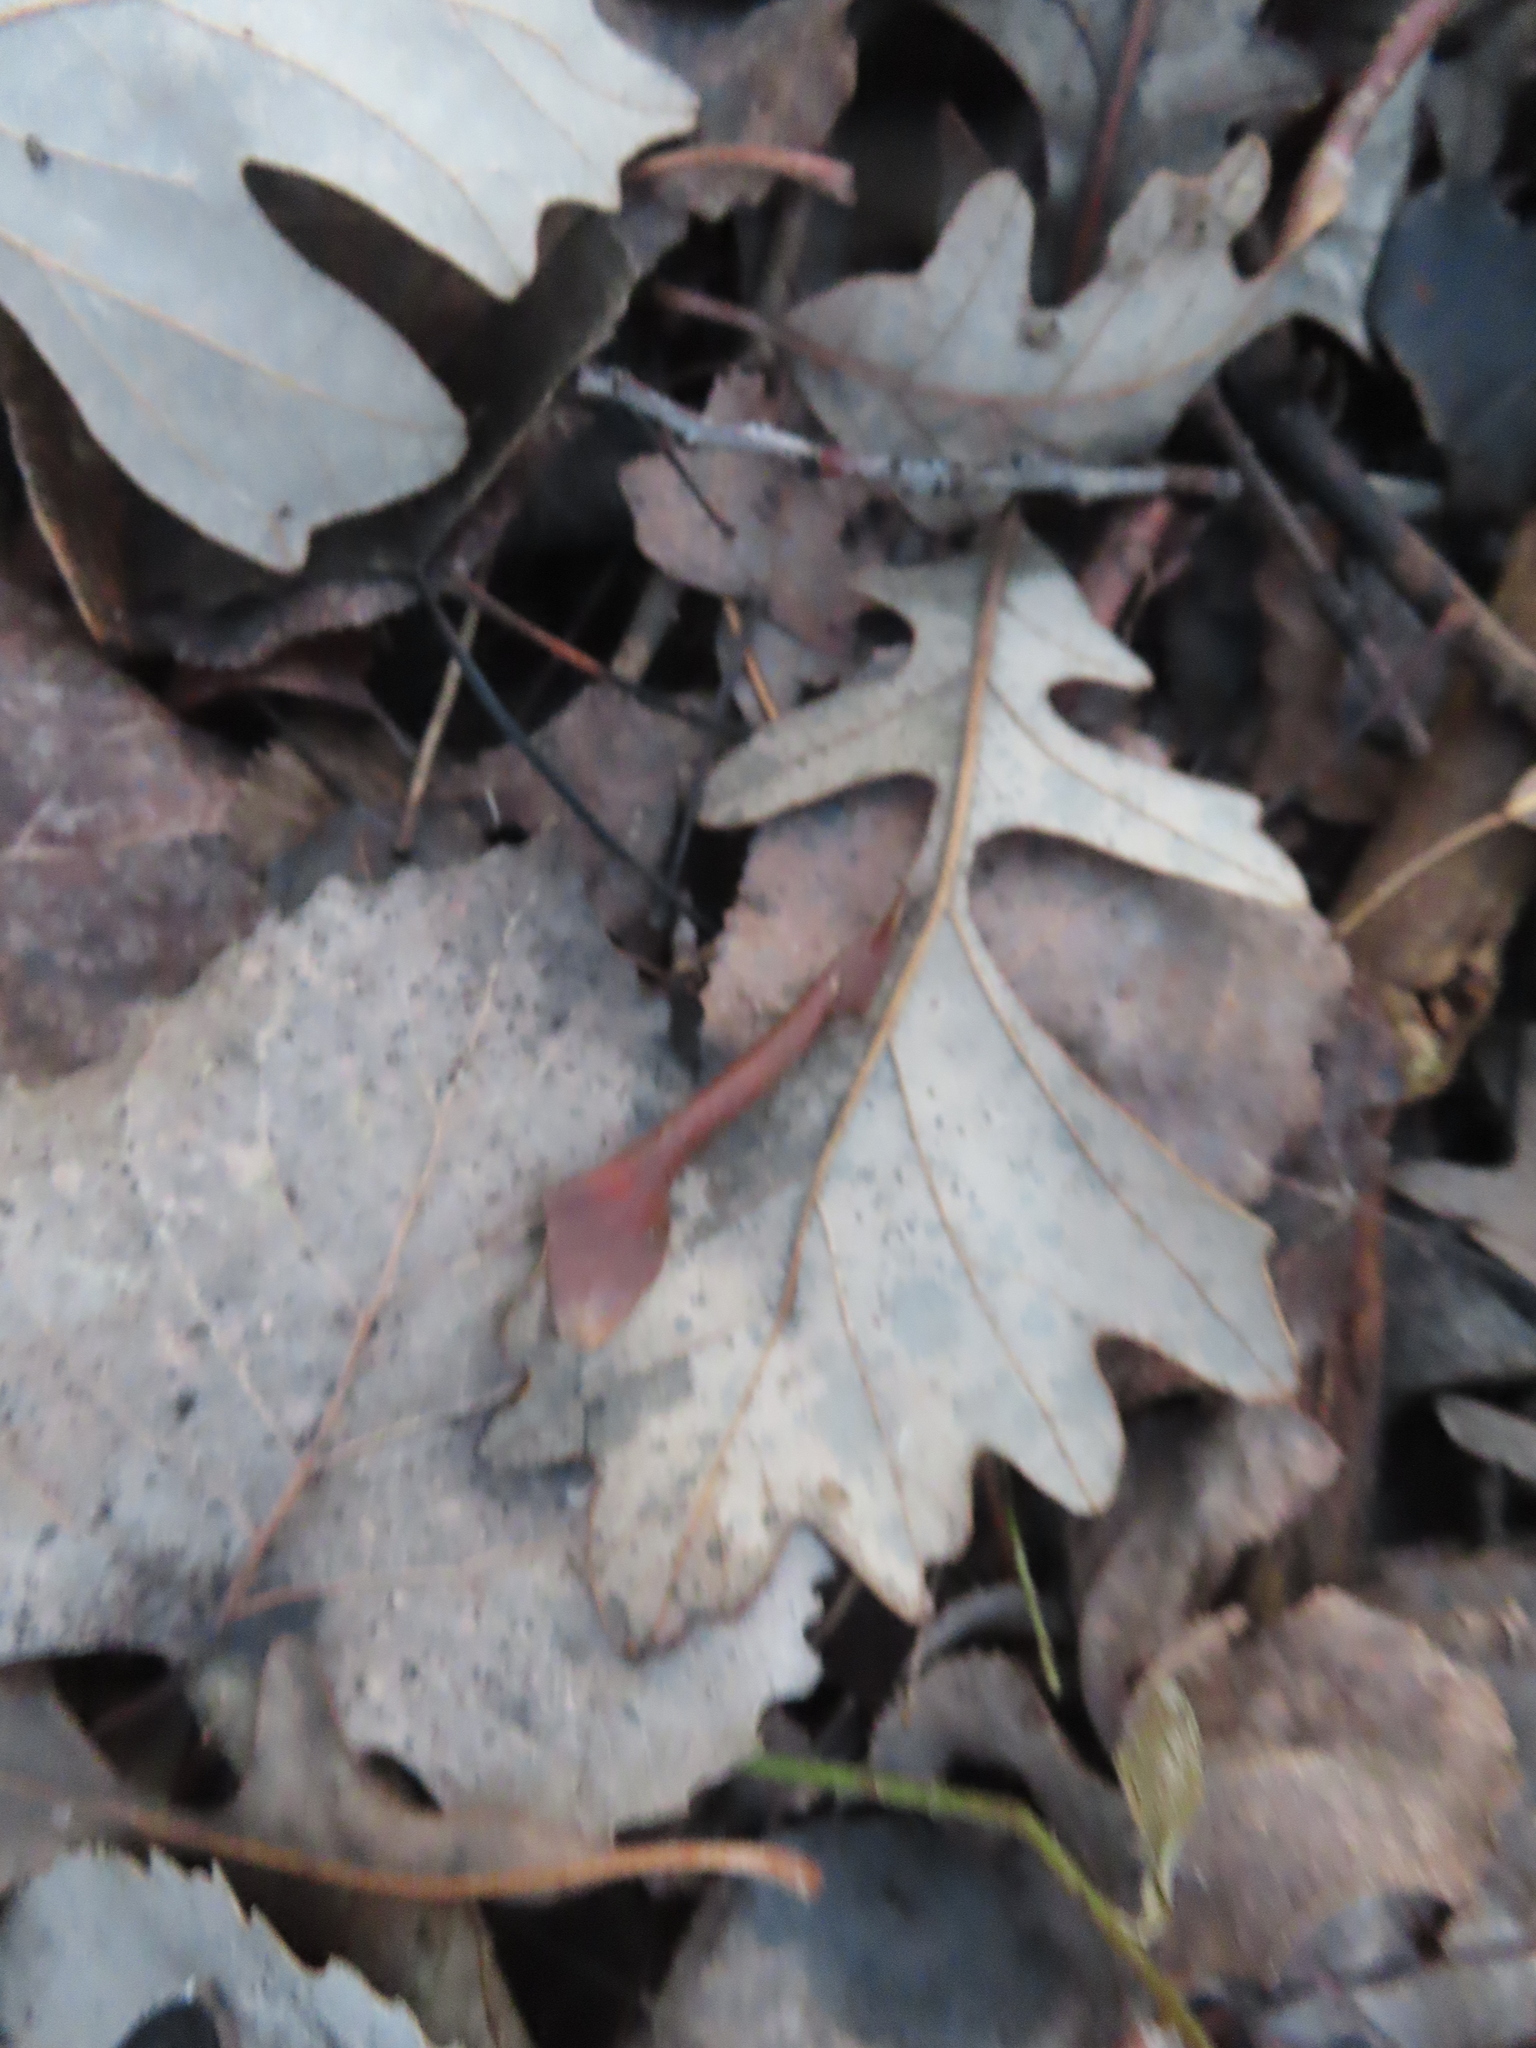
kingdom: Plantae
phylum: Tracheophyta
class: Magnoliopsida
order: Fagales
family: Fagaceae
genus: Quercus
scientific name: Quercus macrocarpa
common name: Bur oak
